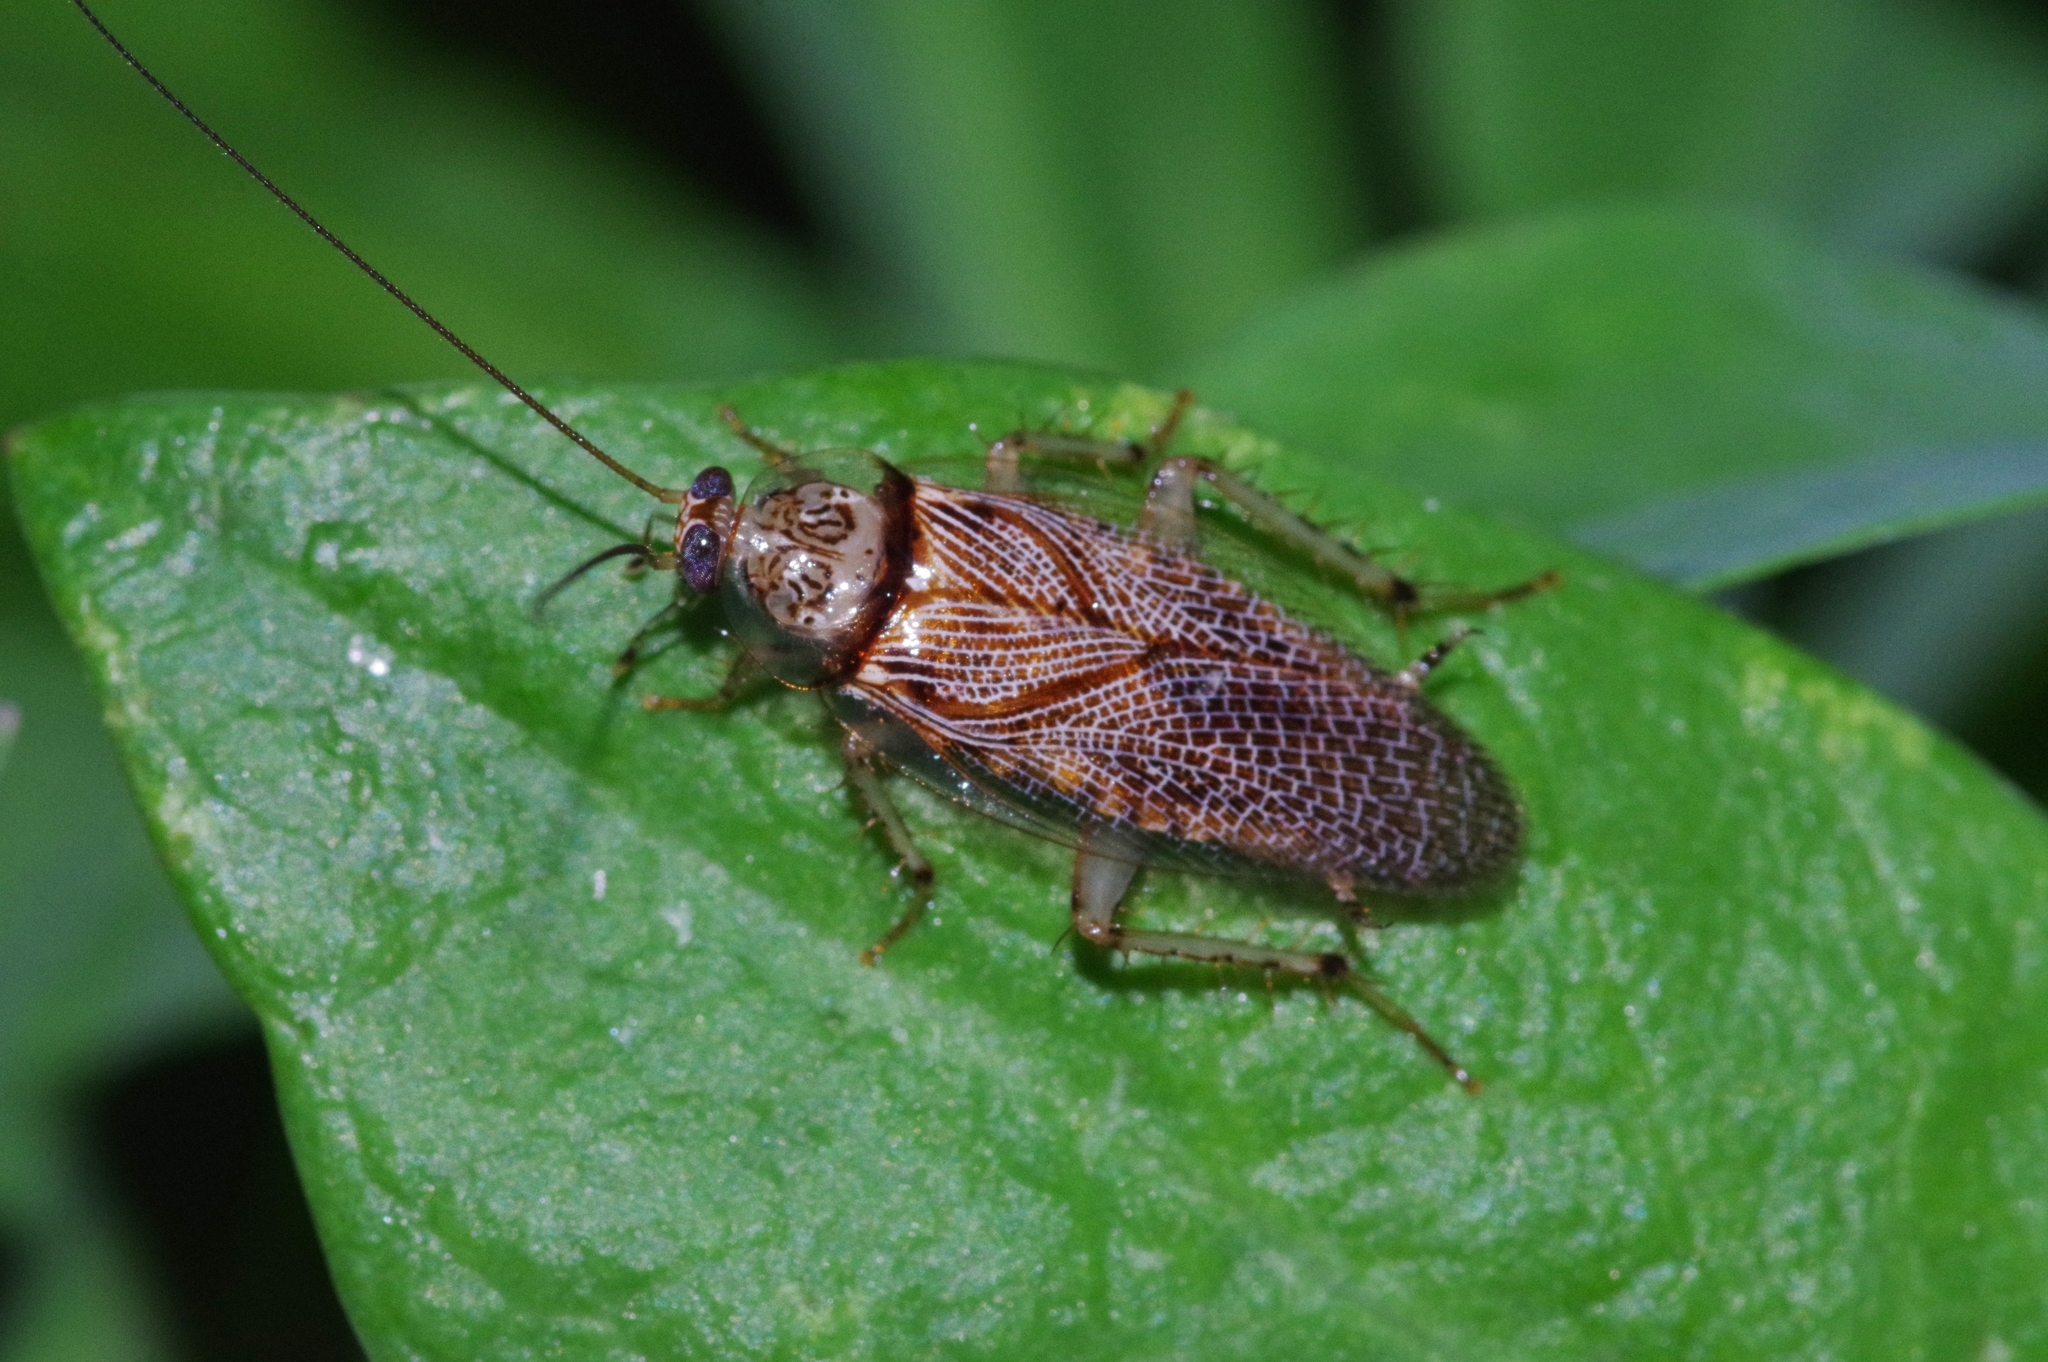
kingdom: Animalia
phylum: Arthropoda
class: Insecta
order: Blattodea
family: Ectobiidae
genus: Balta
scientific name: Balta notulata
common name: Cockroach
